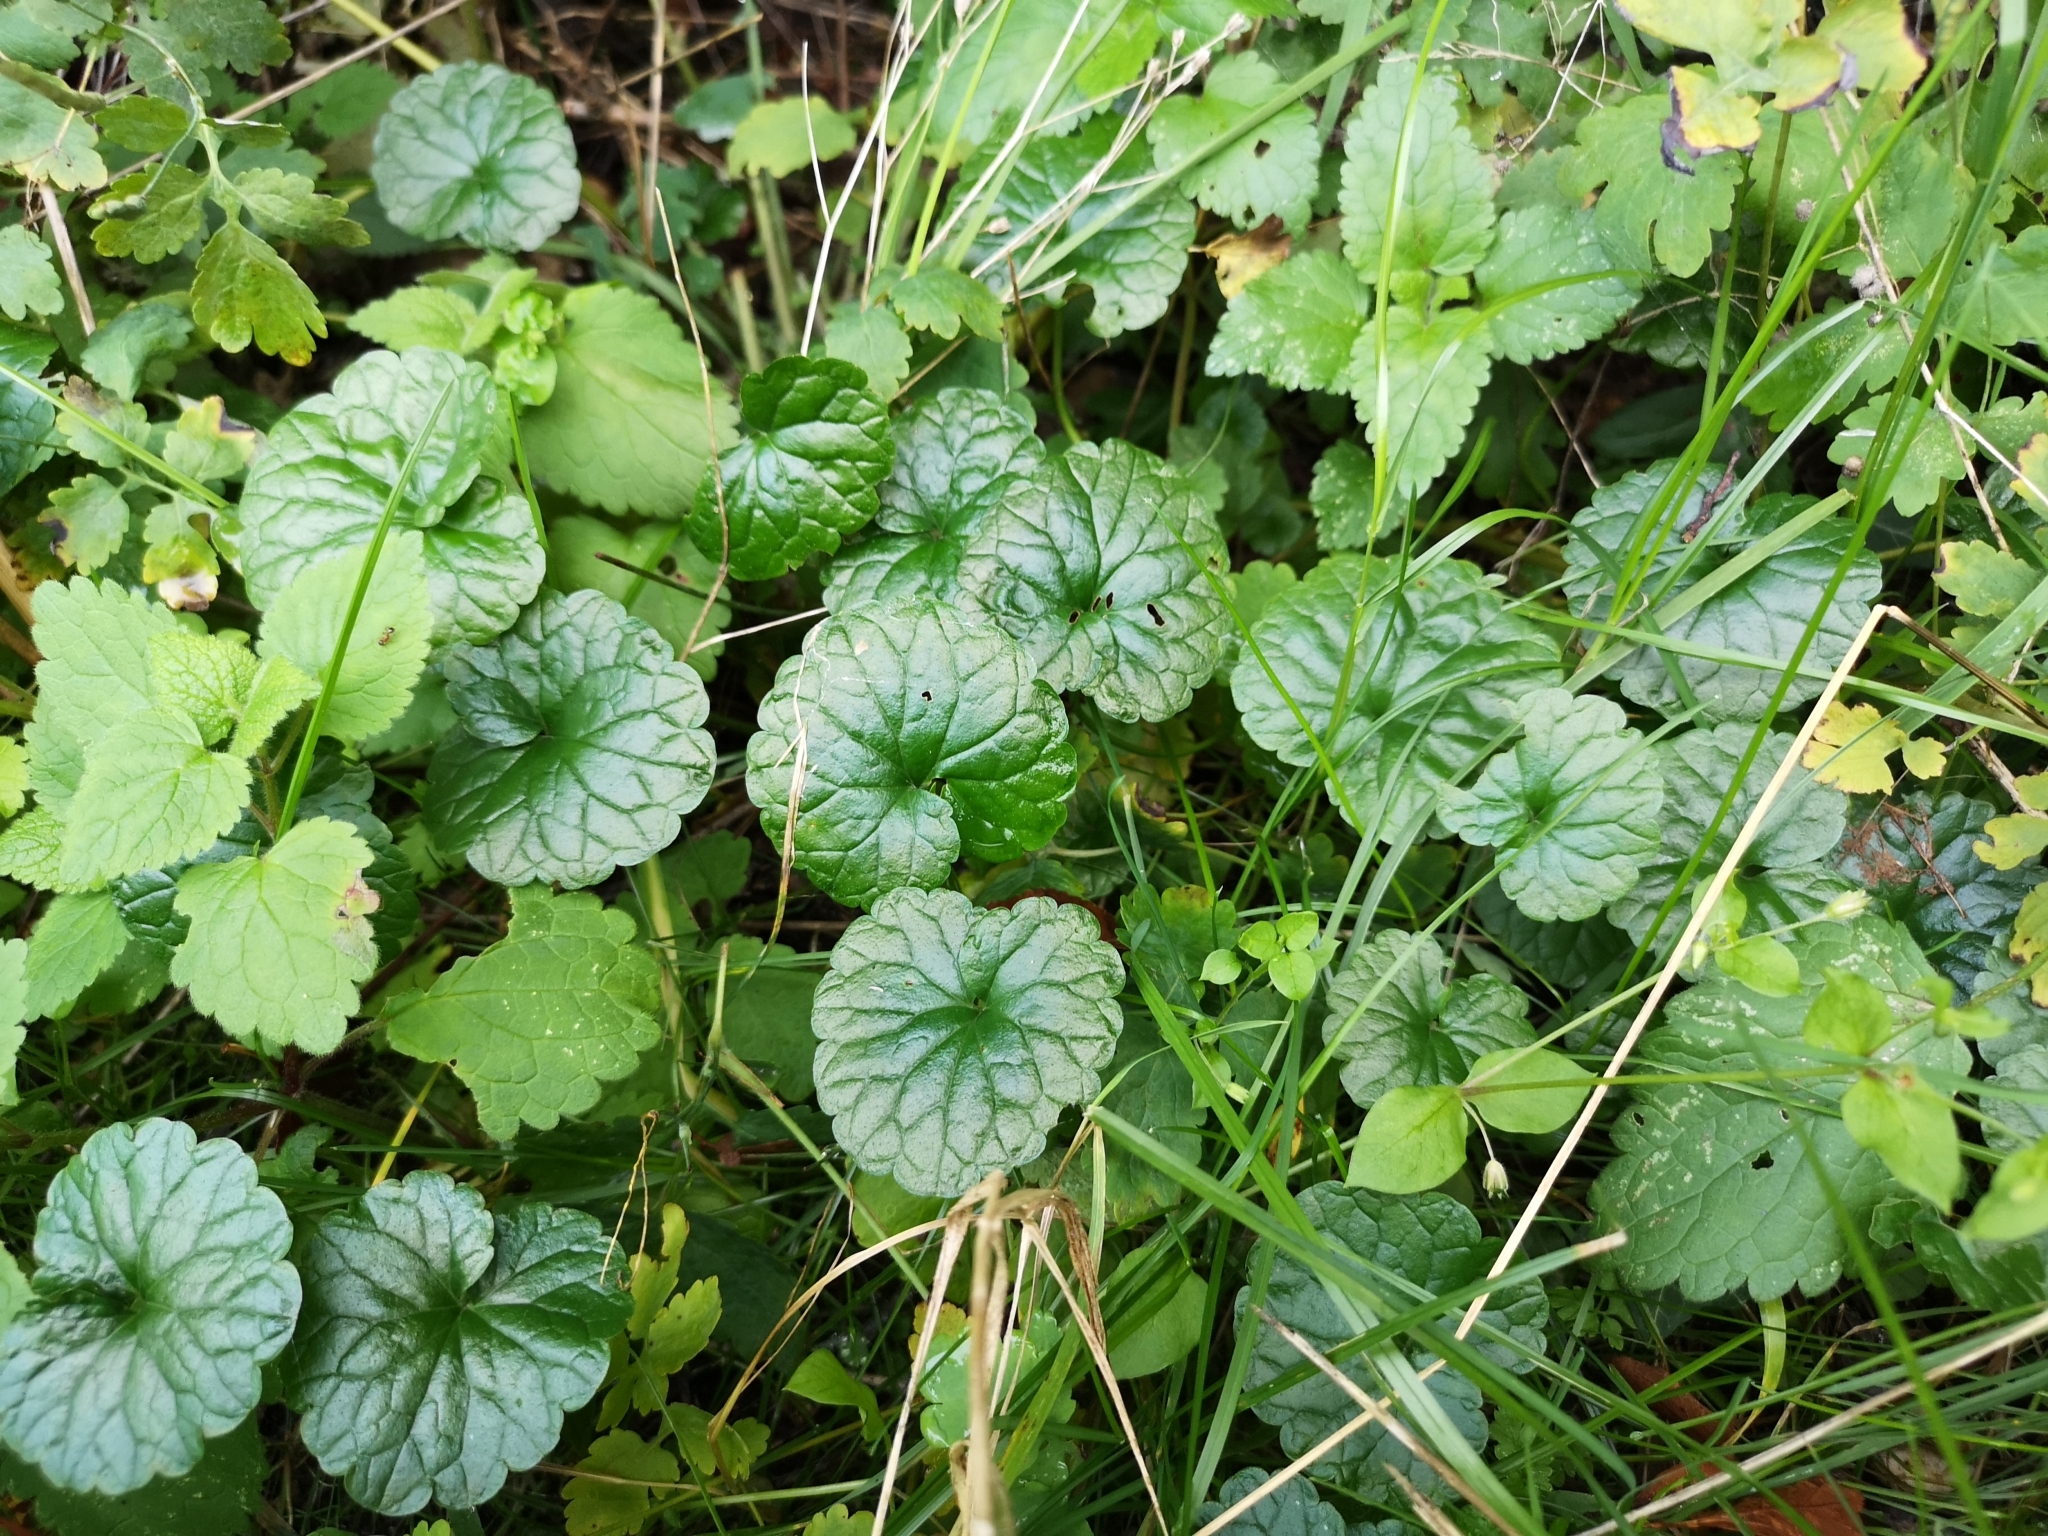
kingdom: Plantae
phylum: Tracheophyta
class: Magnoliopsida
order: Lamiales
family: Lamiaceae
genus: Glechoma
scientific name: Glechoma hederacea
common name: Ground ivy
